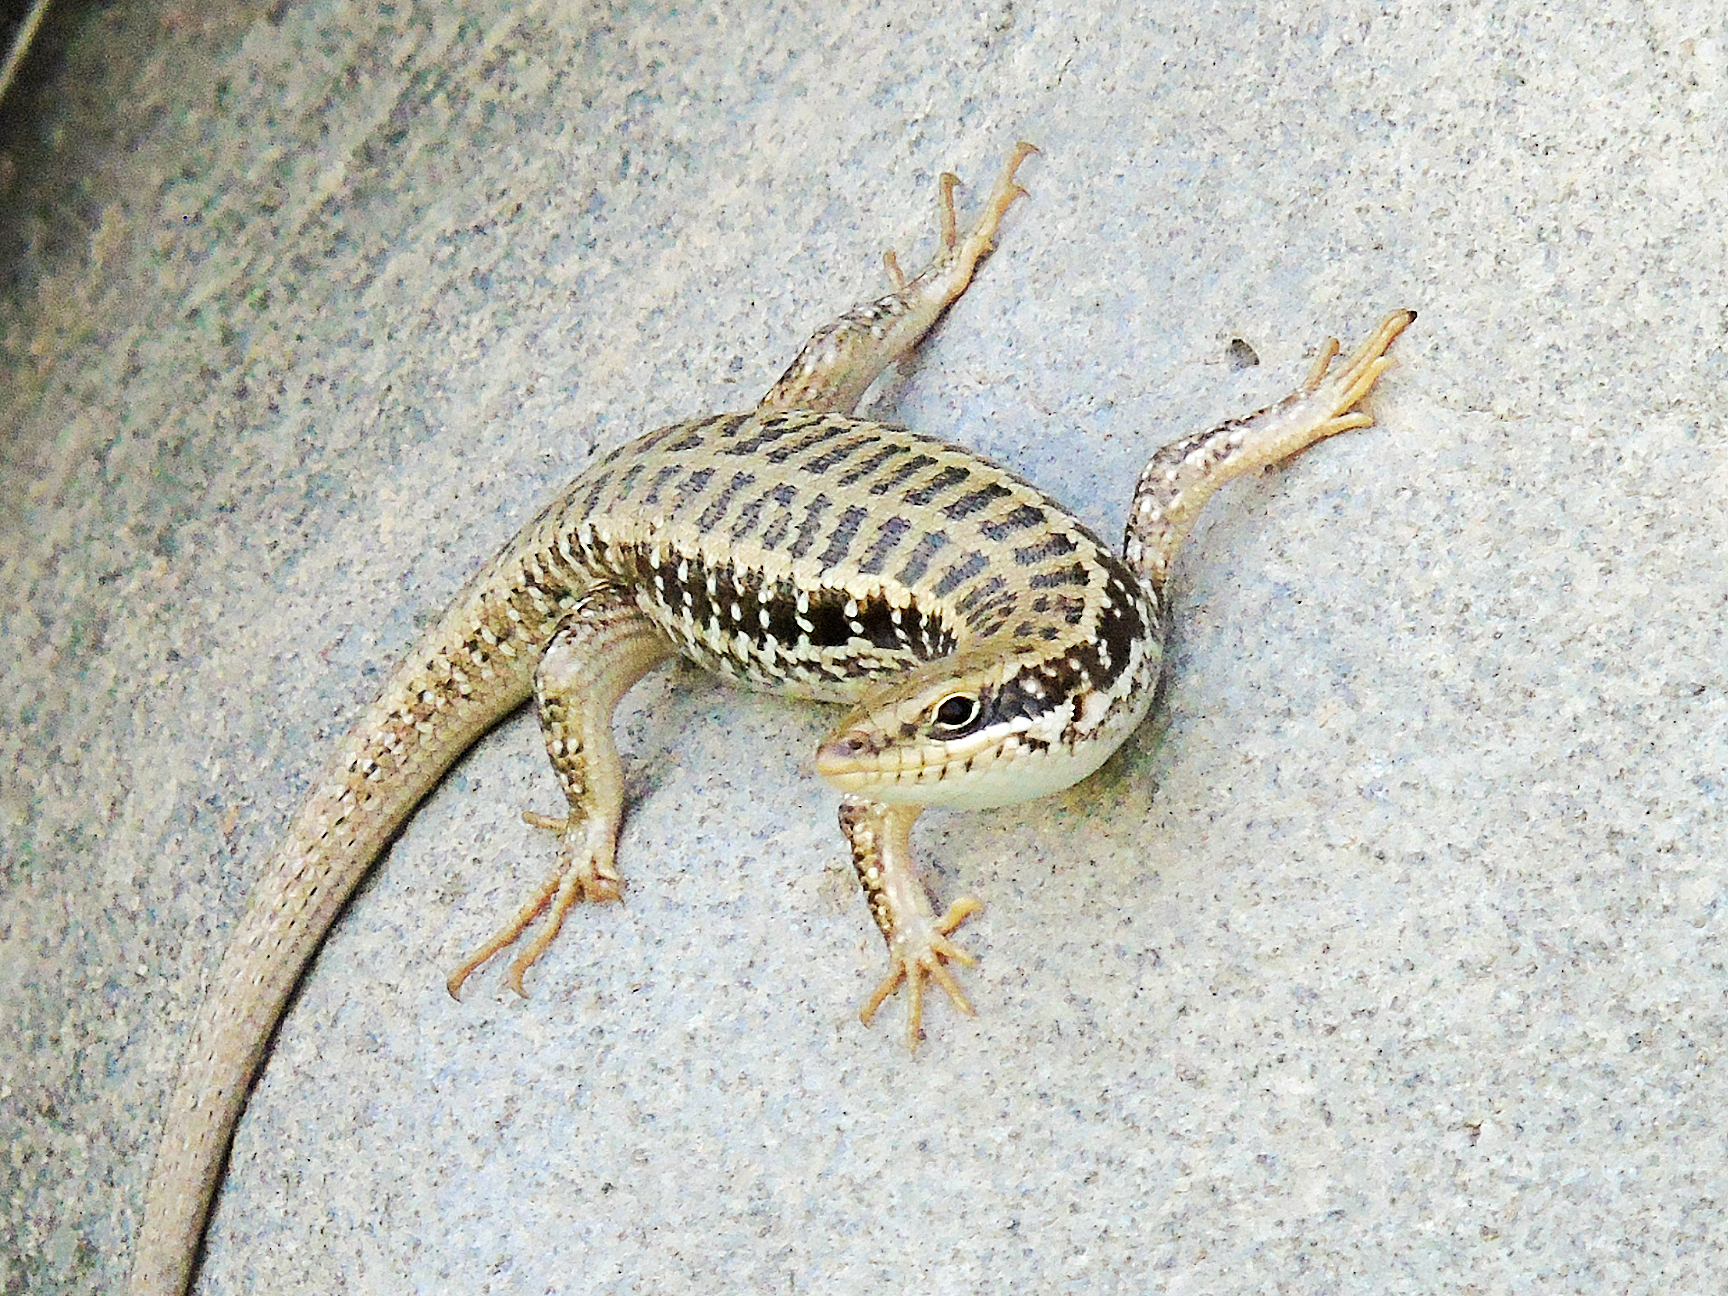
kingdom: Animalia
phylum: Chordata
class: Squamata
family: Scincidae
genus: Heremites
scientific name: Heremites auratus
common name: Golden grass mabuya
